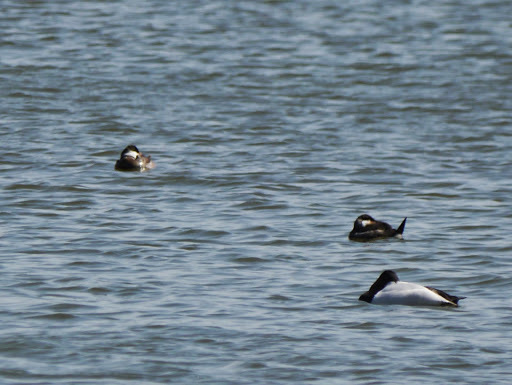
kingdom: Animalia
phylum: Chordata
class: Aves
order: Anseriformes
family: Anatidae
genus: Oxyura
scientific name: Oxyura jamaicensis
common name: Ruddy duck
